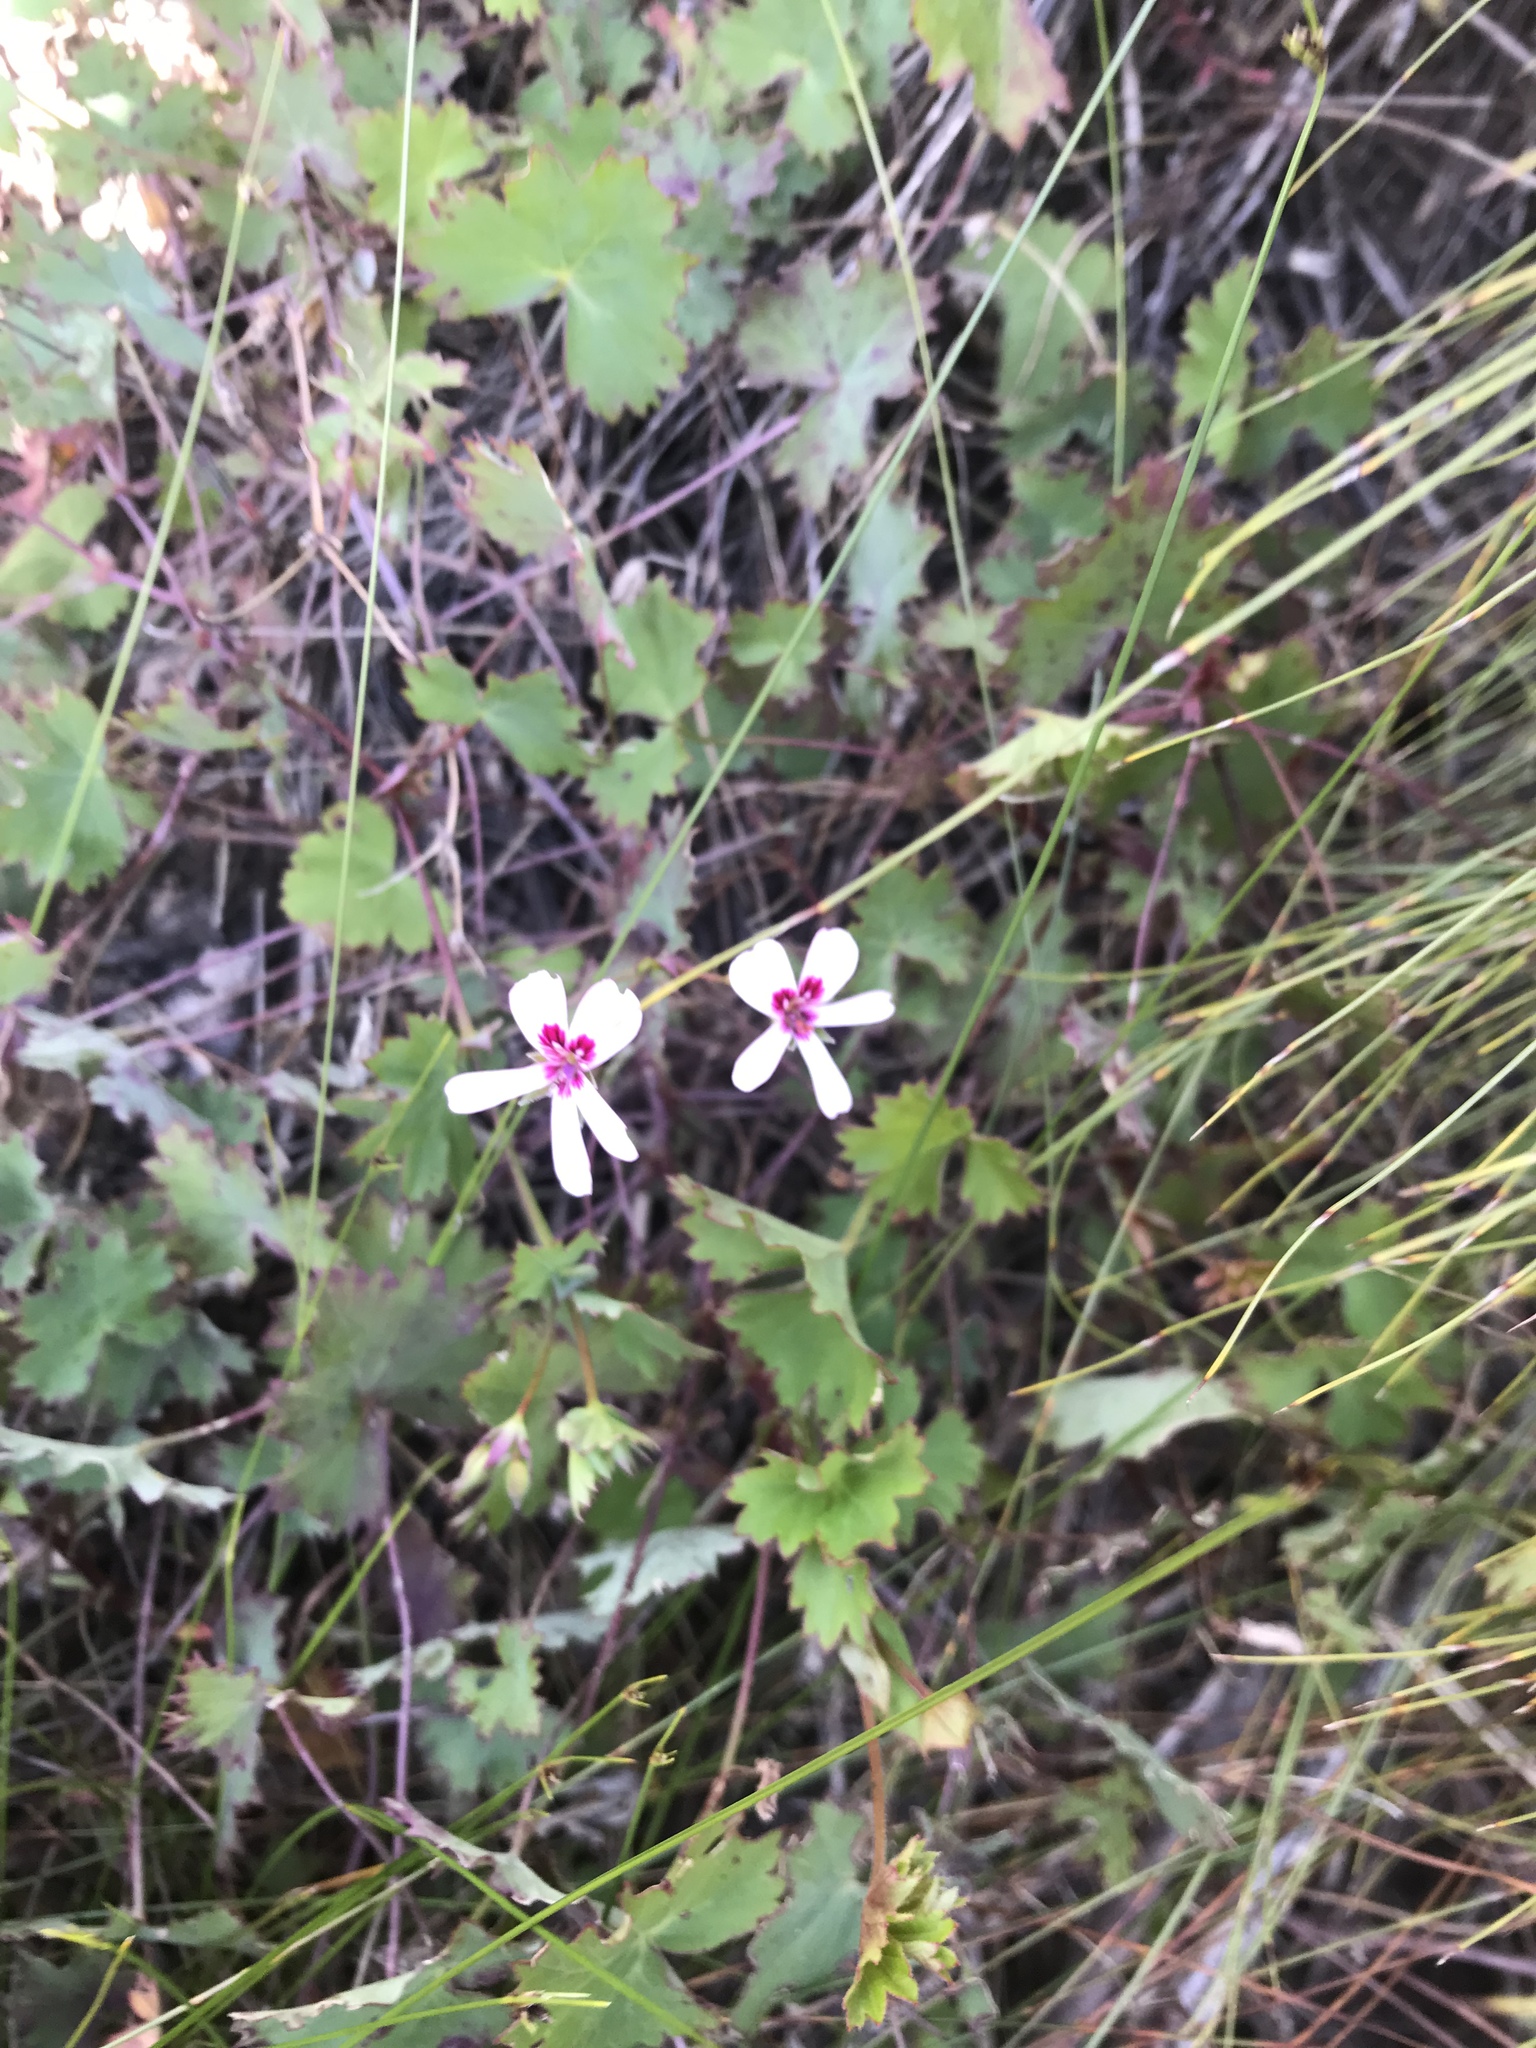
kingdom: Plantae
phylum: Tracheophyta
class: Magnoliopsida
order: Geraniales
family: Geraniaceae
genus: Pelargonium
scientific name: Pelargonium patulum
